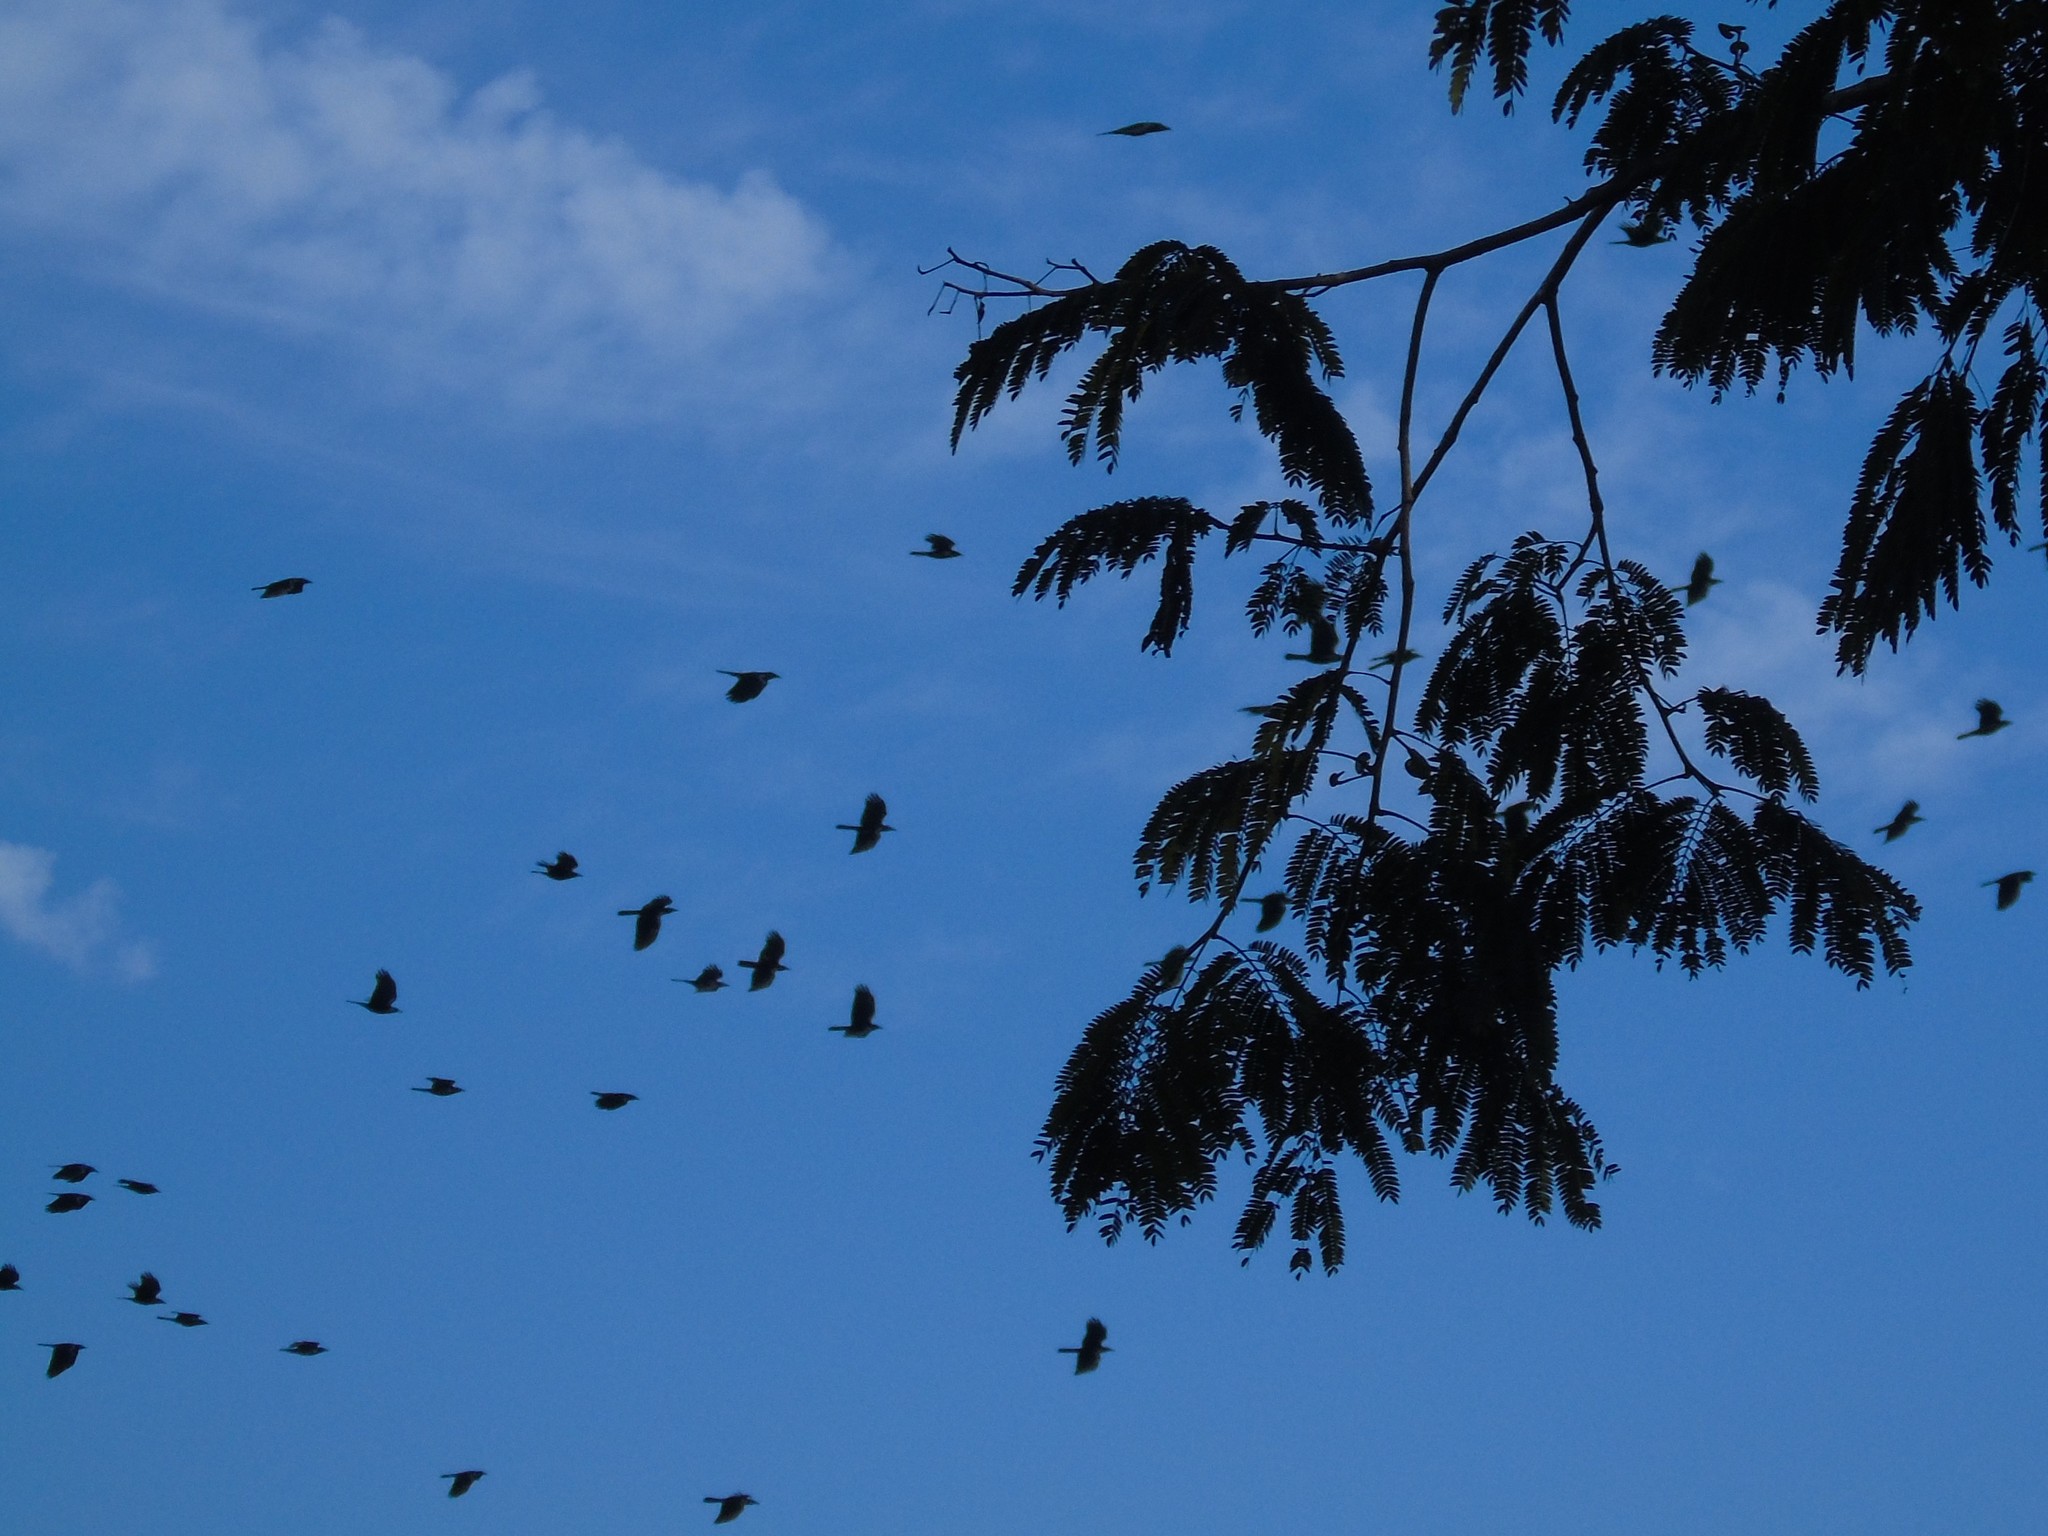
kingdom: Animalia
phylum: Chordata
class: Aves
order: Passeriformes
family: Corvidae
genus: Corvus
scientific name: Corvus sinaloae
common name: Sinaloa crow
